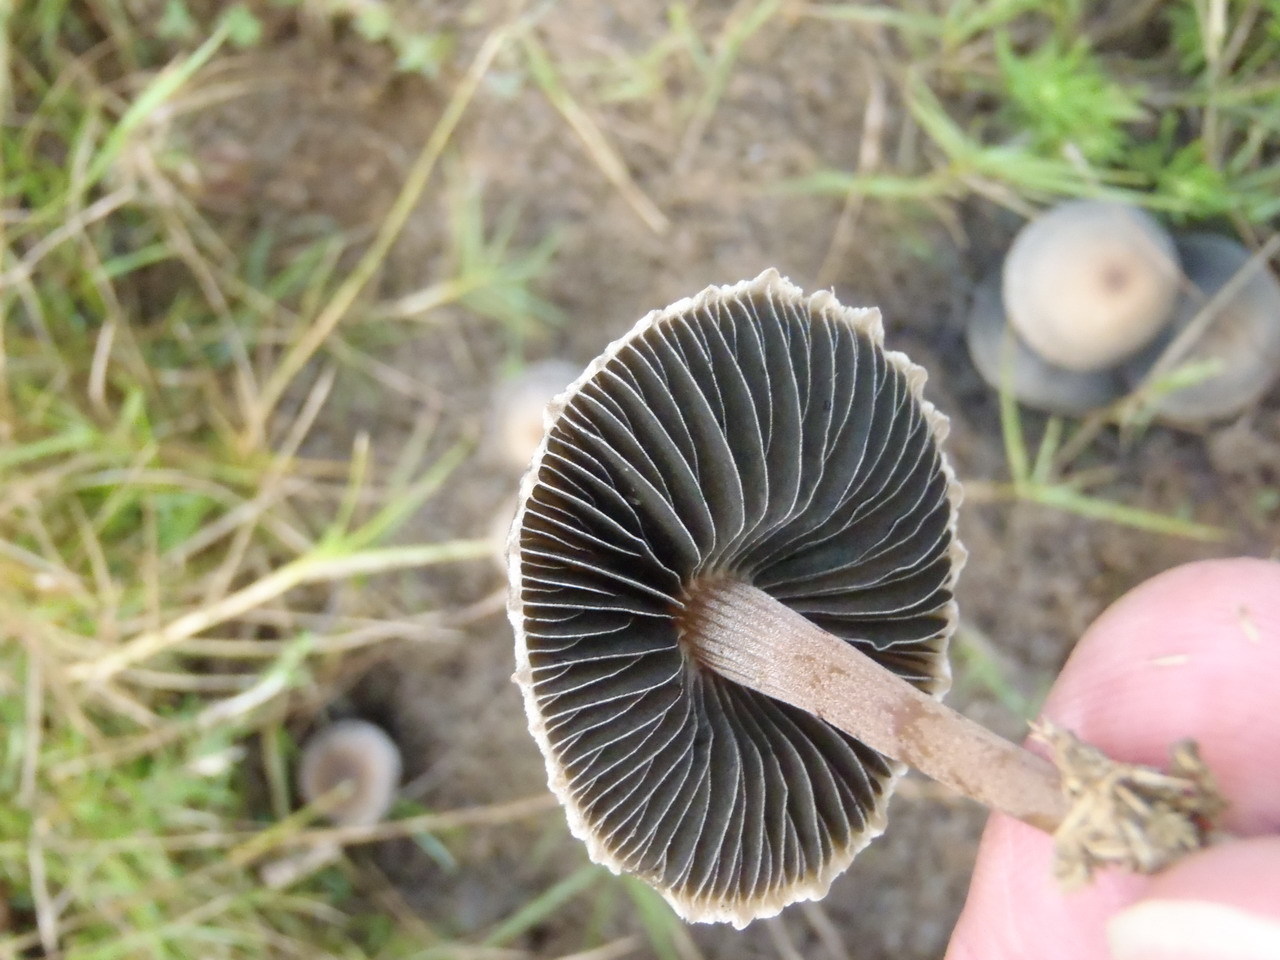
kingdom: Fungi
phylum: Basidiomycota
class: Agaricomycetes
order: Agaricales
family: Bolbitiaceae
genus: Panaeolus
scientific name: Panaeolus papilionaceus
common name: Petticoat mottlegill
